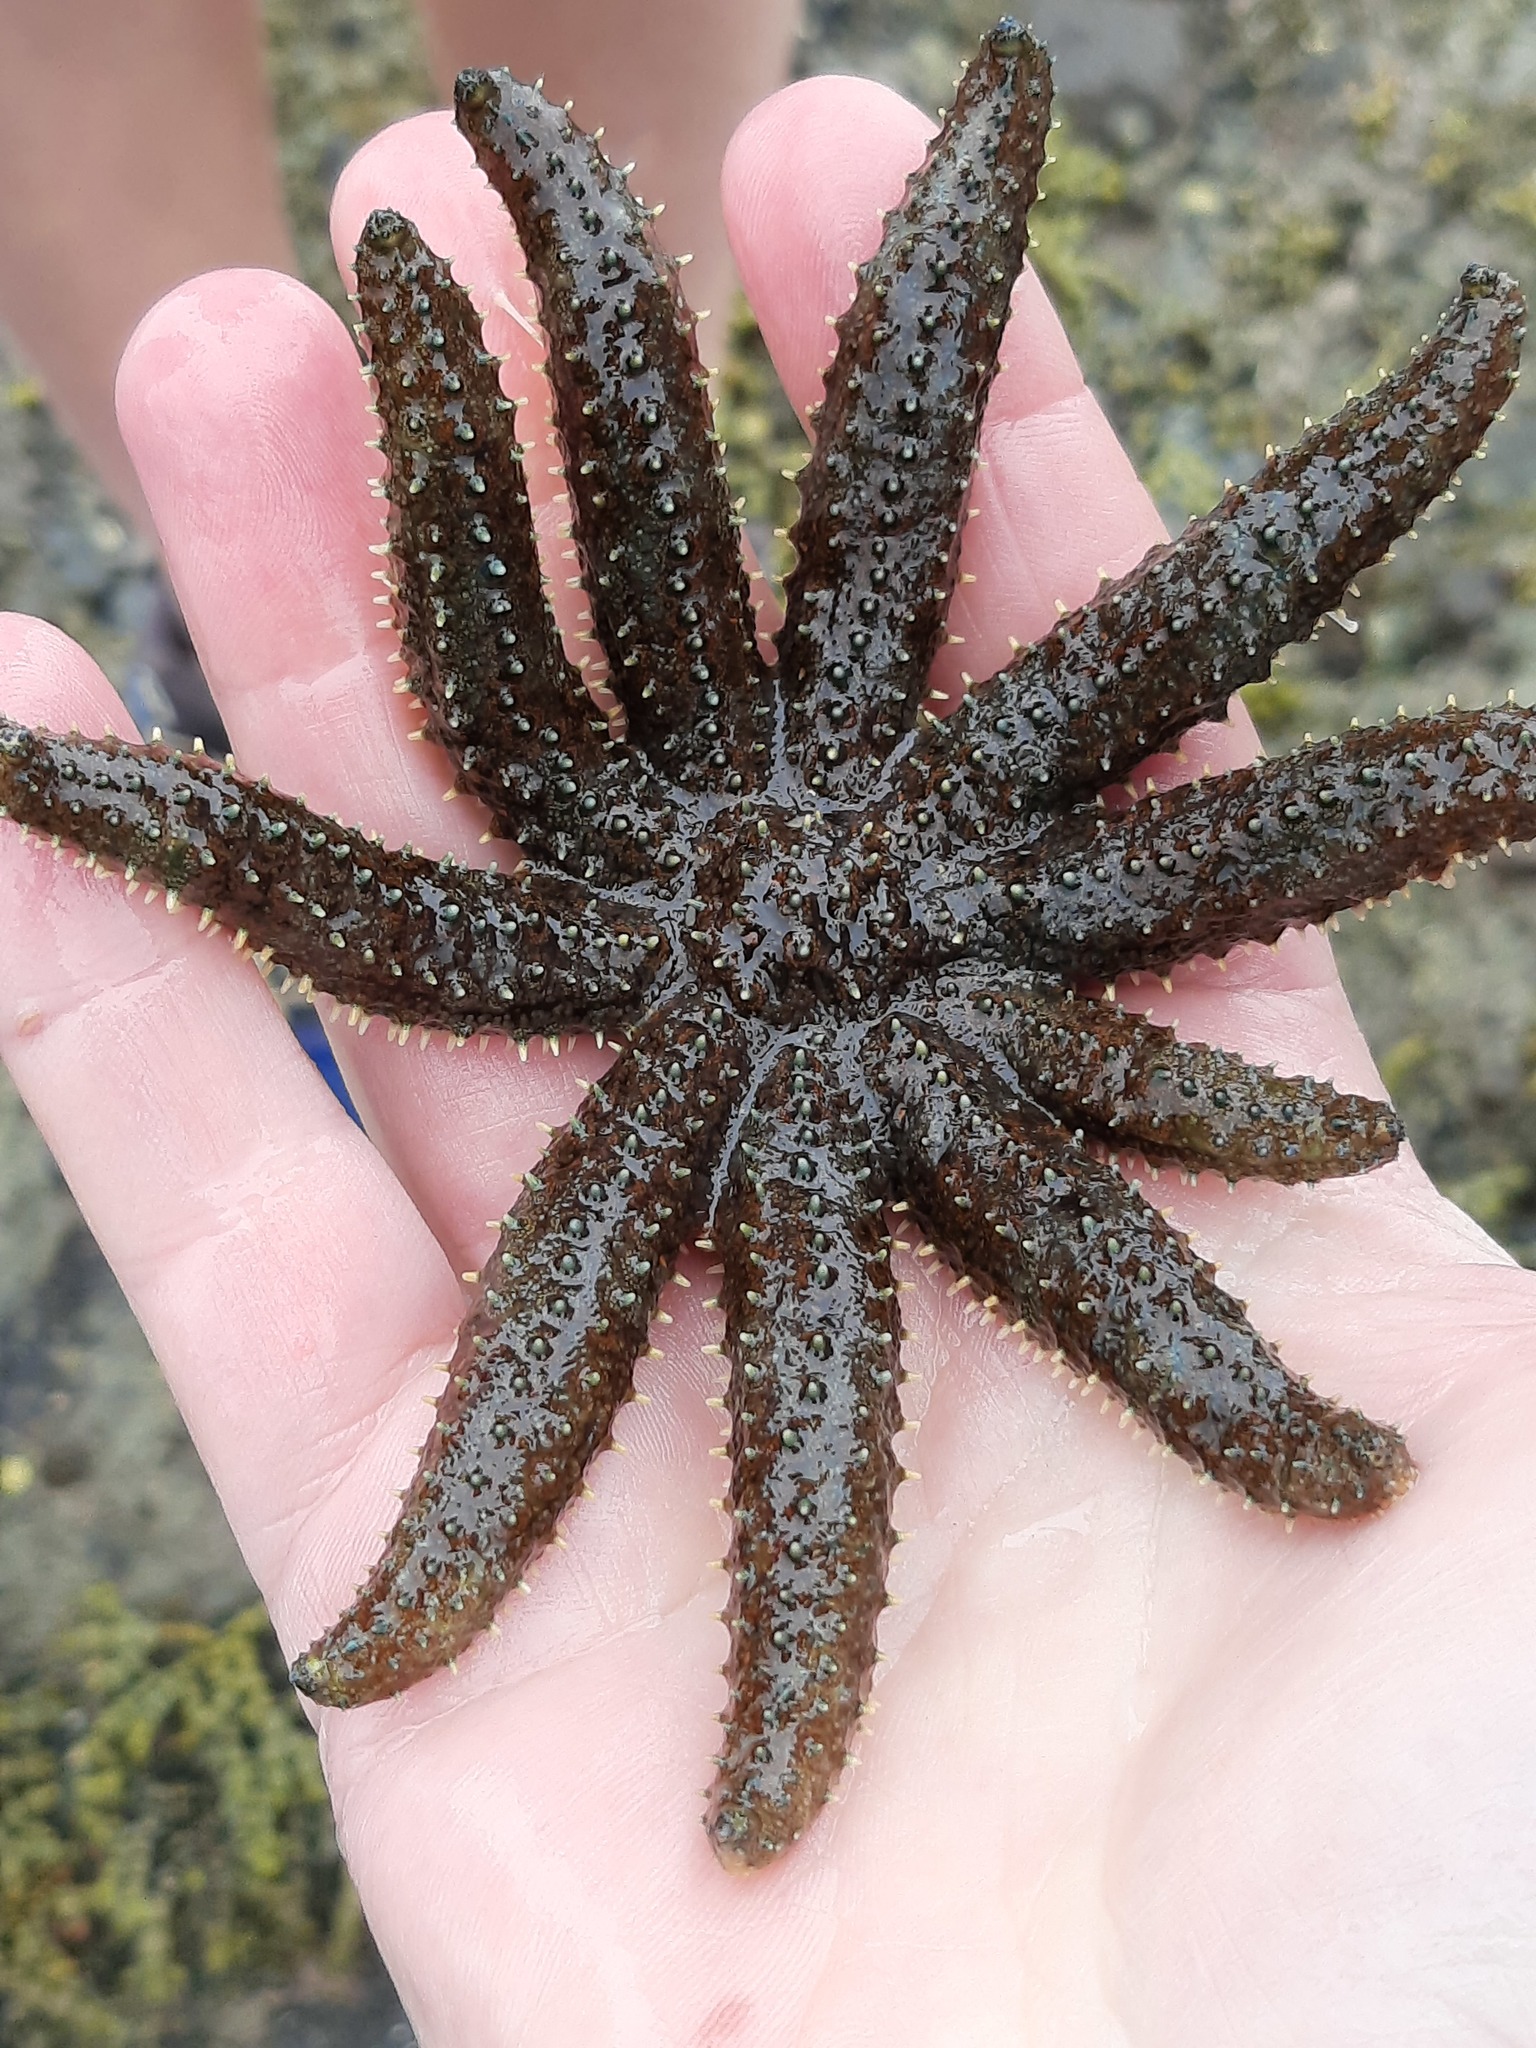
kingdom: Animalia
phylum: Echinodermata
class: Asteroidea
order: Forcipulatida
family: Asteriidae
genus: Coscinasterias
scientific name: Coscinasterias muricata
